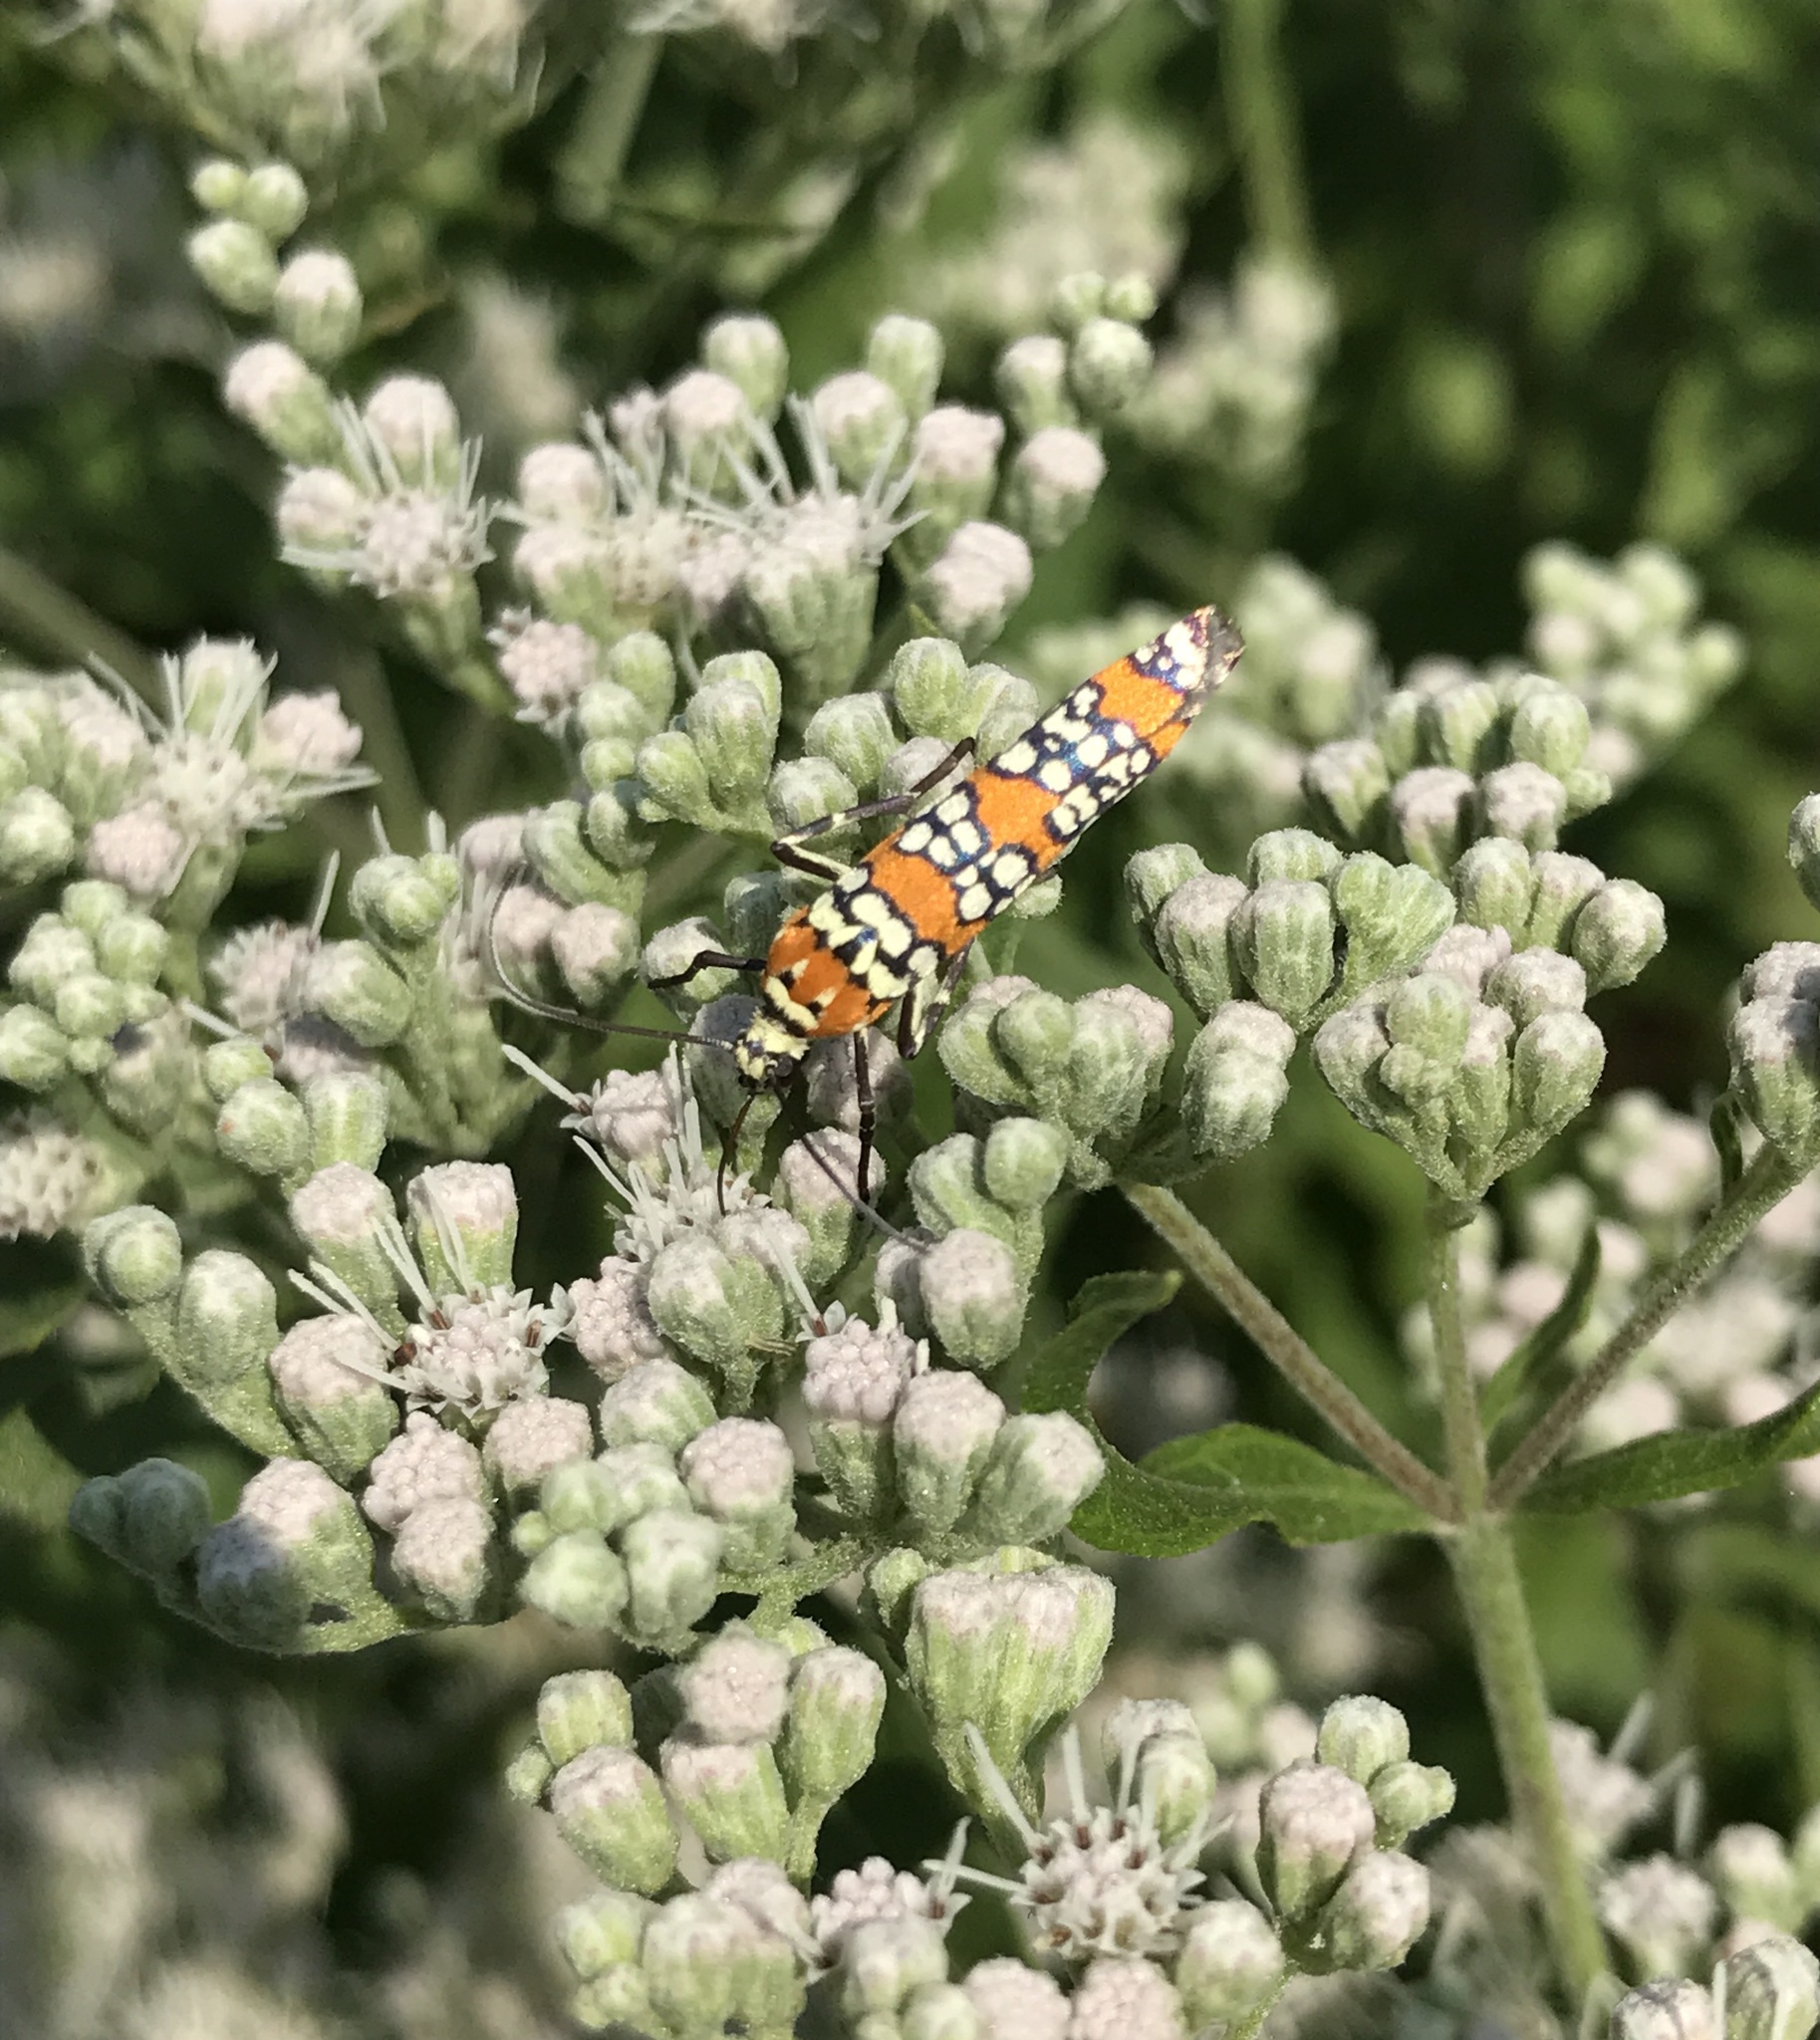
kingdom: Animalia
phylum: Arthropoda
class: Insecta
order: Lepidoptera
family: Attevidae
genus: Atteva
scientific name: Atteva punctella
